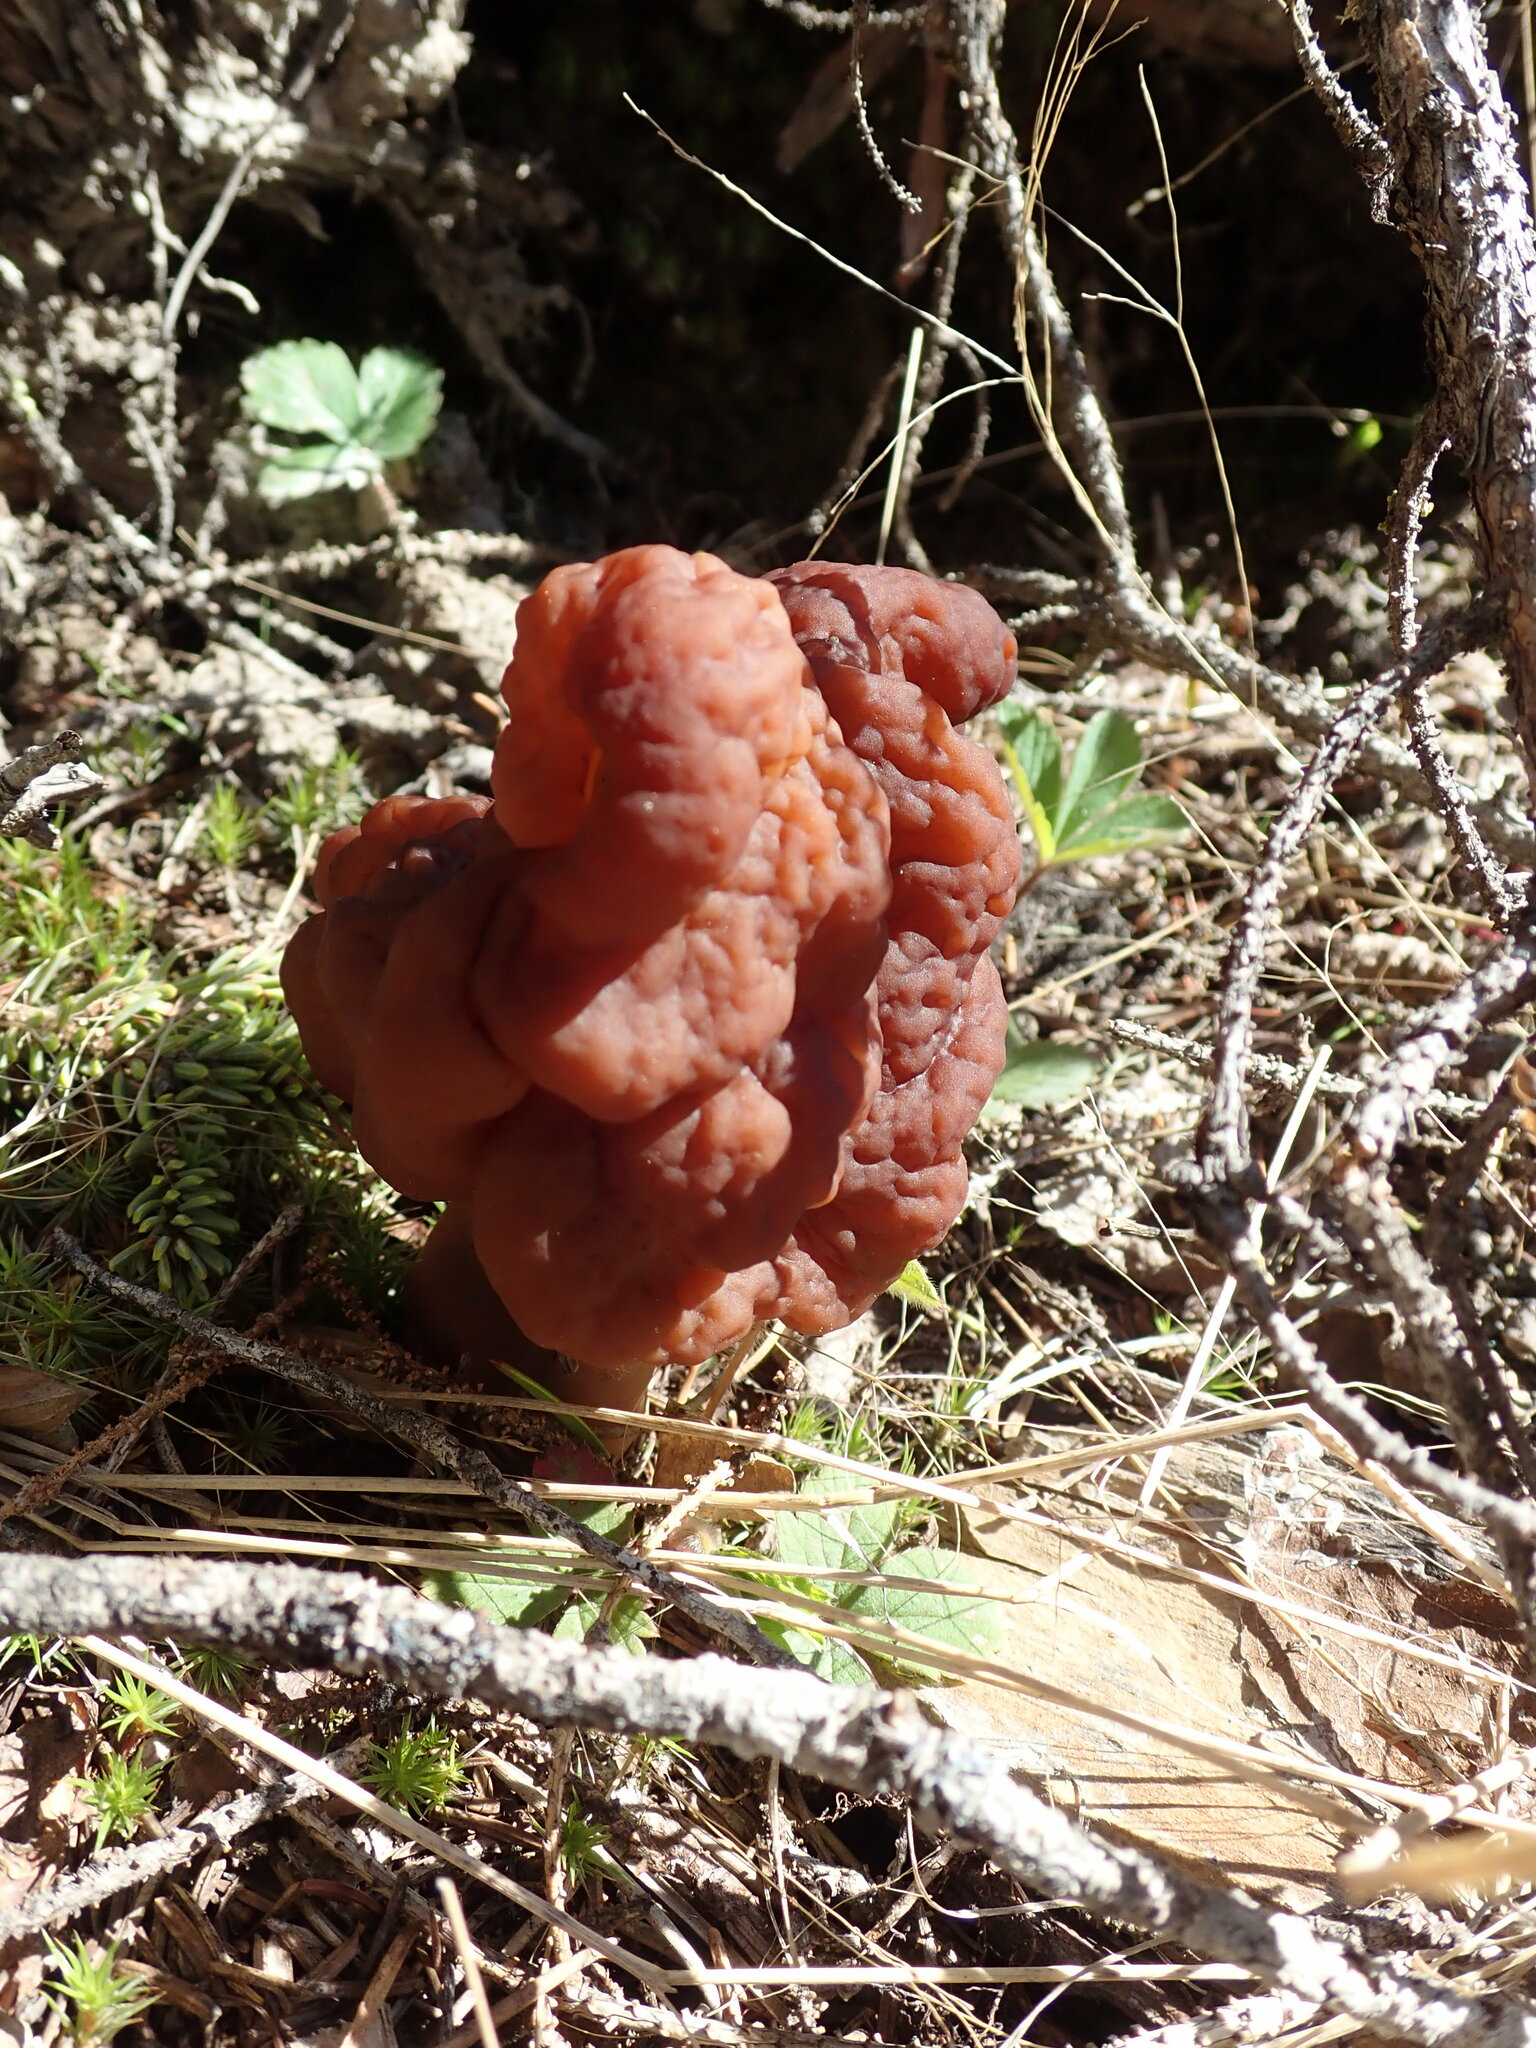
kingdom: Fungi
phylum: Ascomycota
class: Pezizomycetes
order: Pezizales
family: Discinaceae
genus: Gyromitra
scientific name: Gyromitra esculenta
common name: False morel
